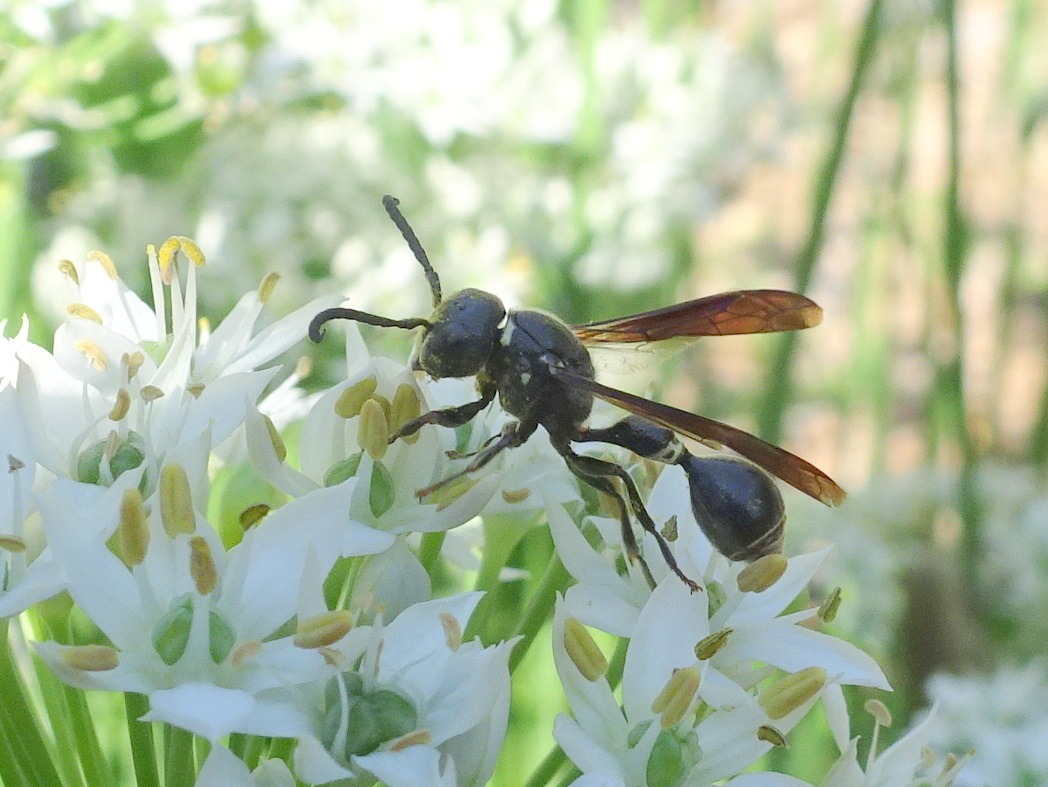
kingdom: Animalia
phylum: Arthropoda
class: Insecta
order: Hymenoptera
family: Eumenidae
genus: Zethus
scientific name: Zethus spinipes
